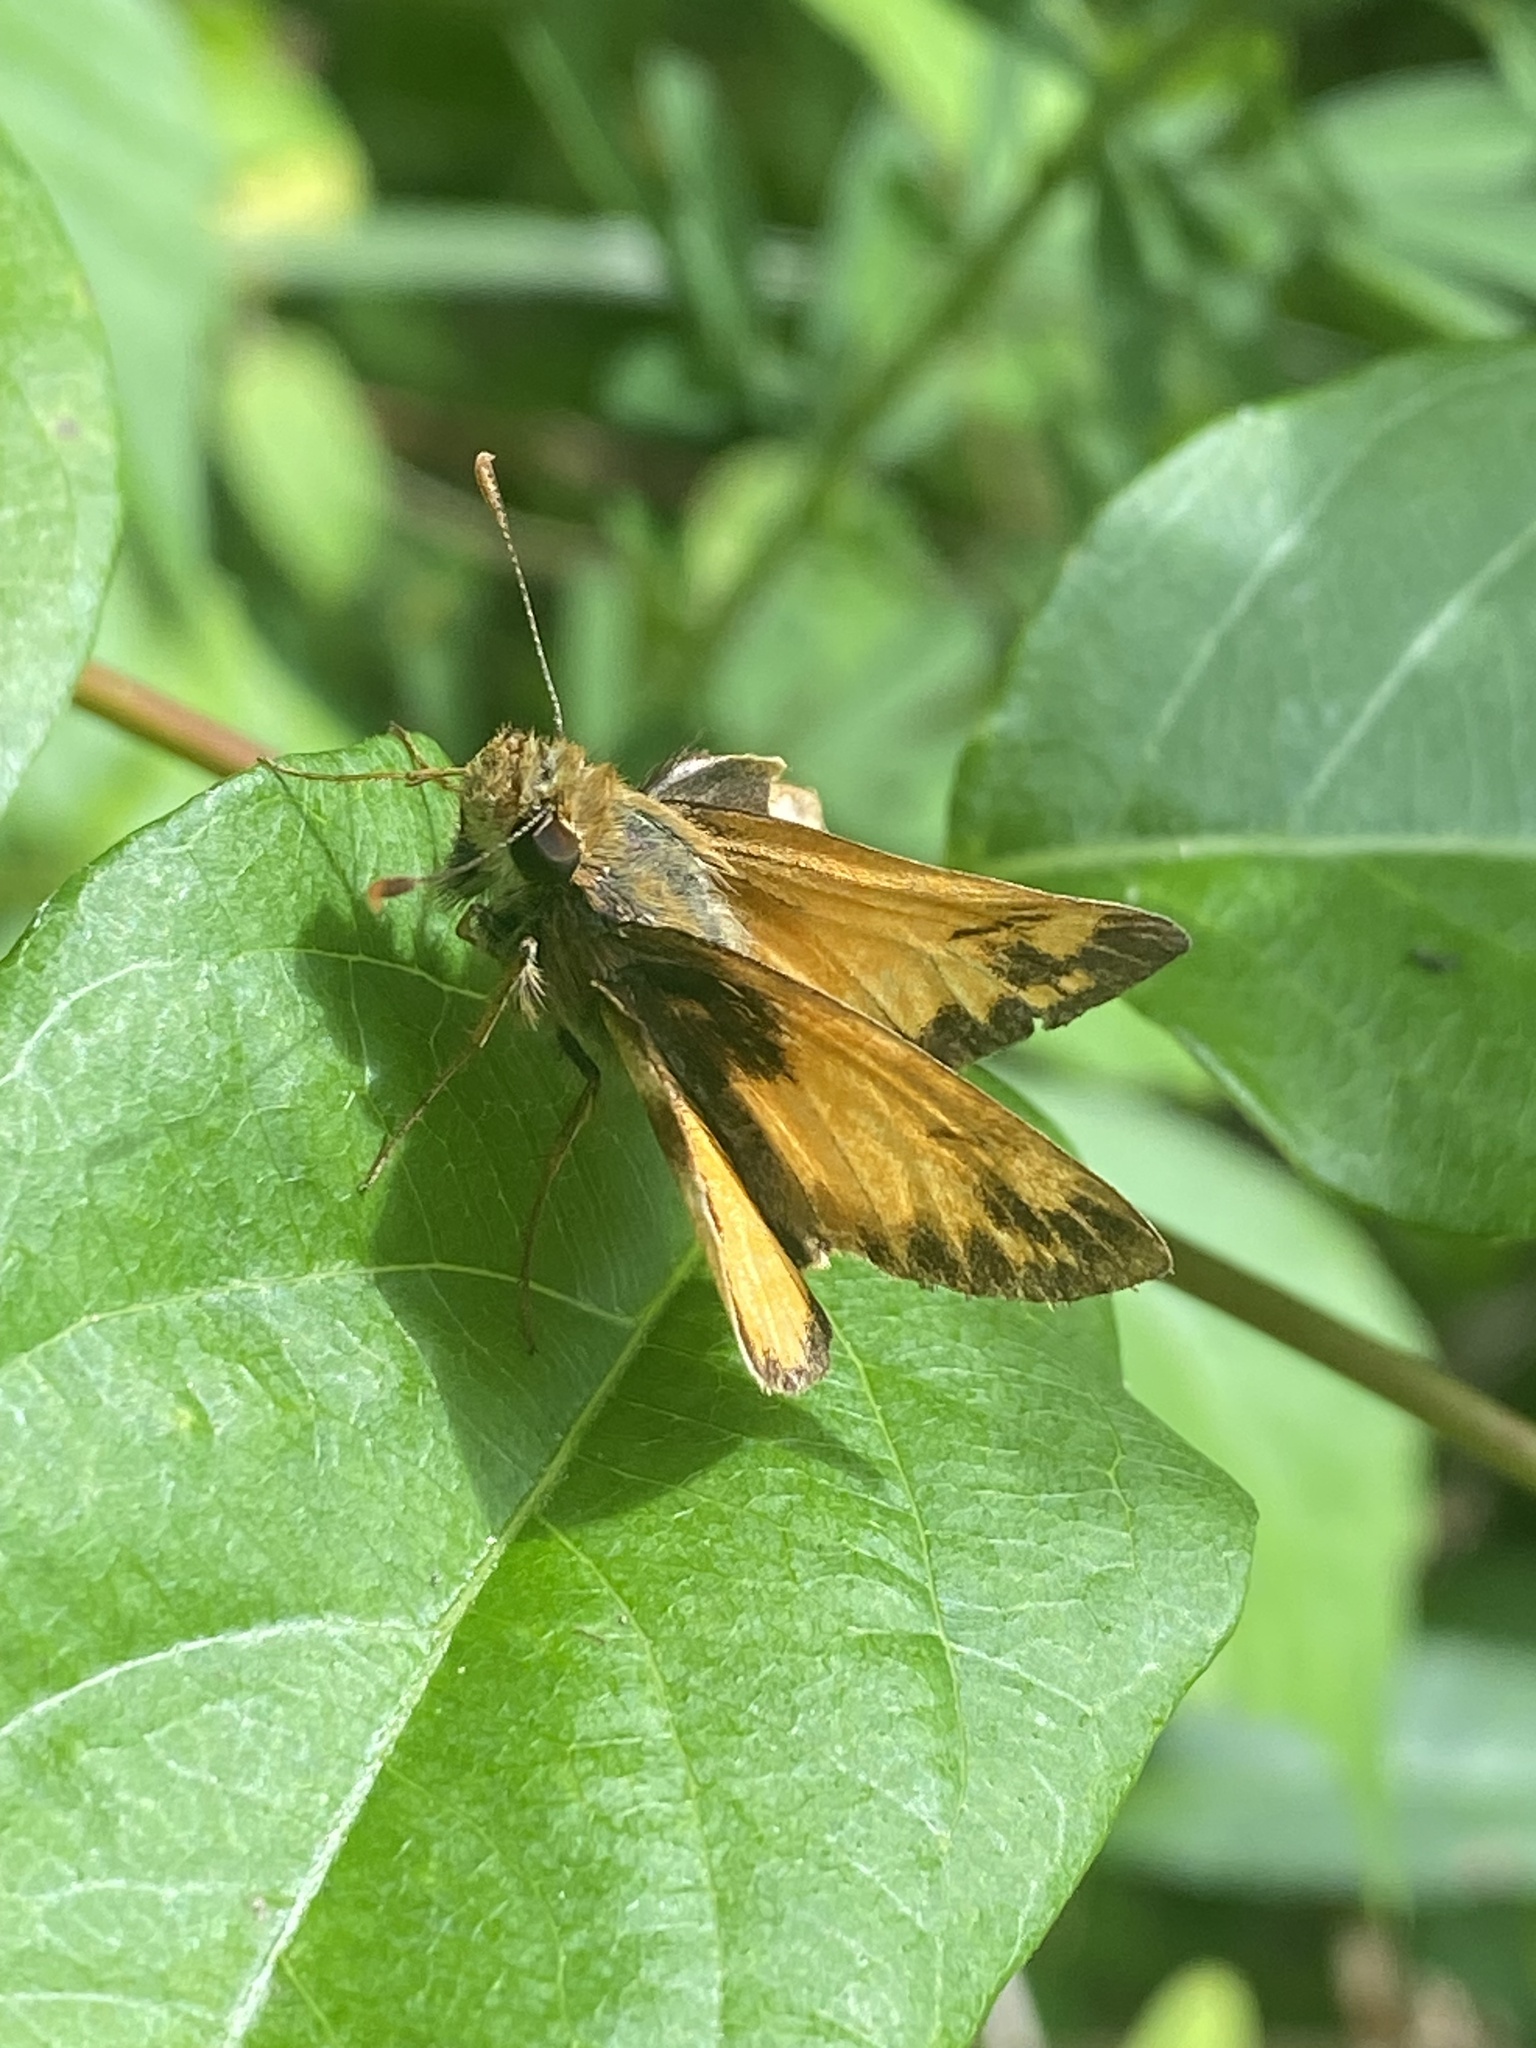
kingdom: Animalia
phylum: Arthropoda
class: Insecta
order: Lepidoptera
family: Hesperiidae
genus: Lon
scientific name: Lon zabulon
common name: Zabulon skipper
